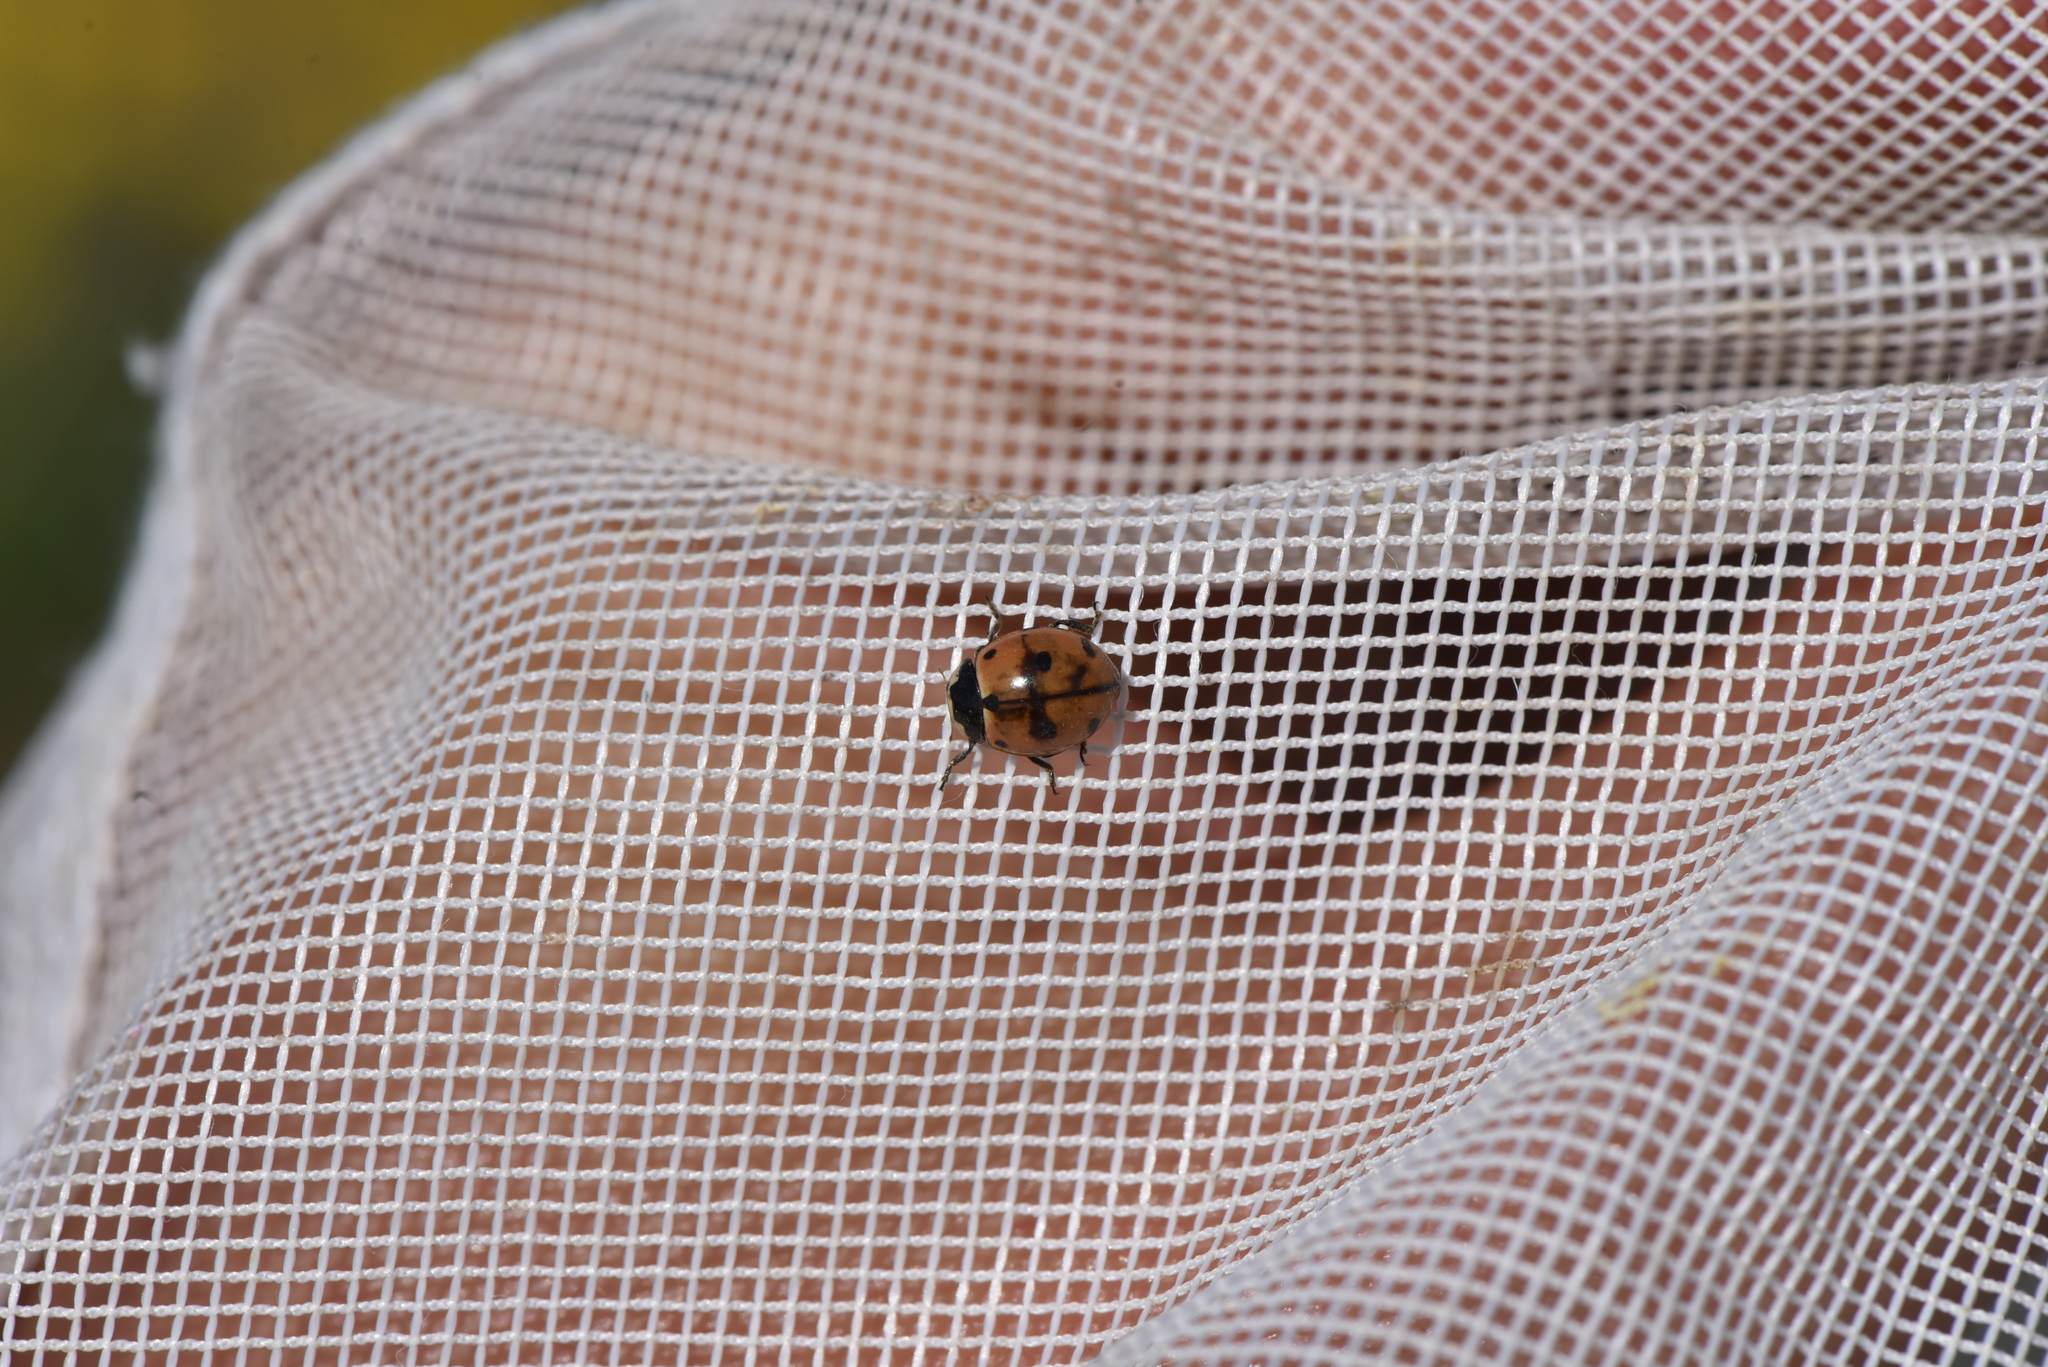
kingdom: Animalia
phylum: Arthropoda
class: Insecta
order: Coleoptera
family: Coccinellidae
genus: Coccinella
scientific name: Coccinella novemnotata
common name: Nine-spotted lady beetle
